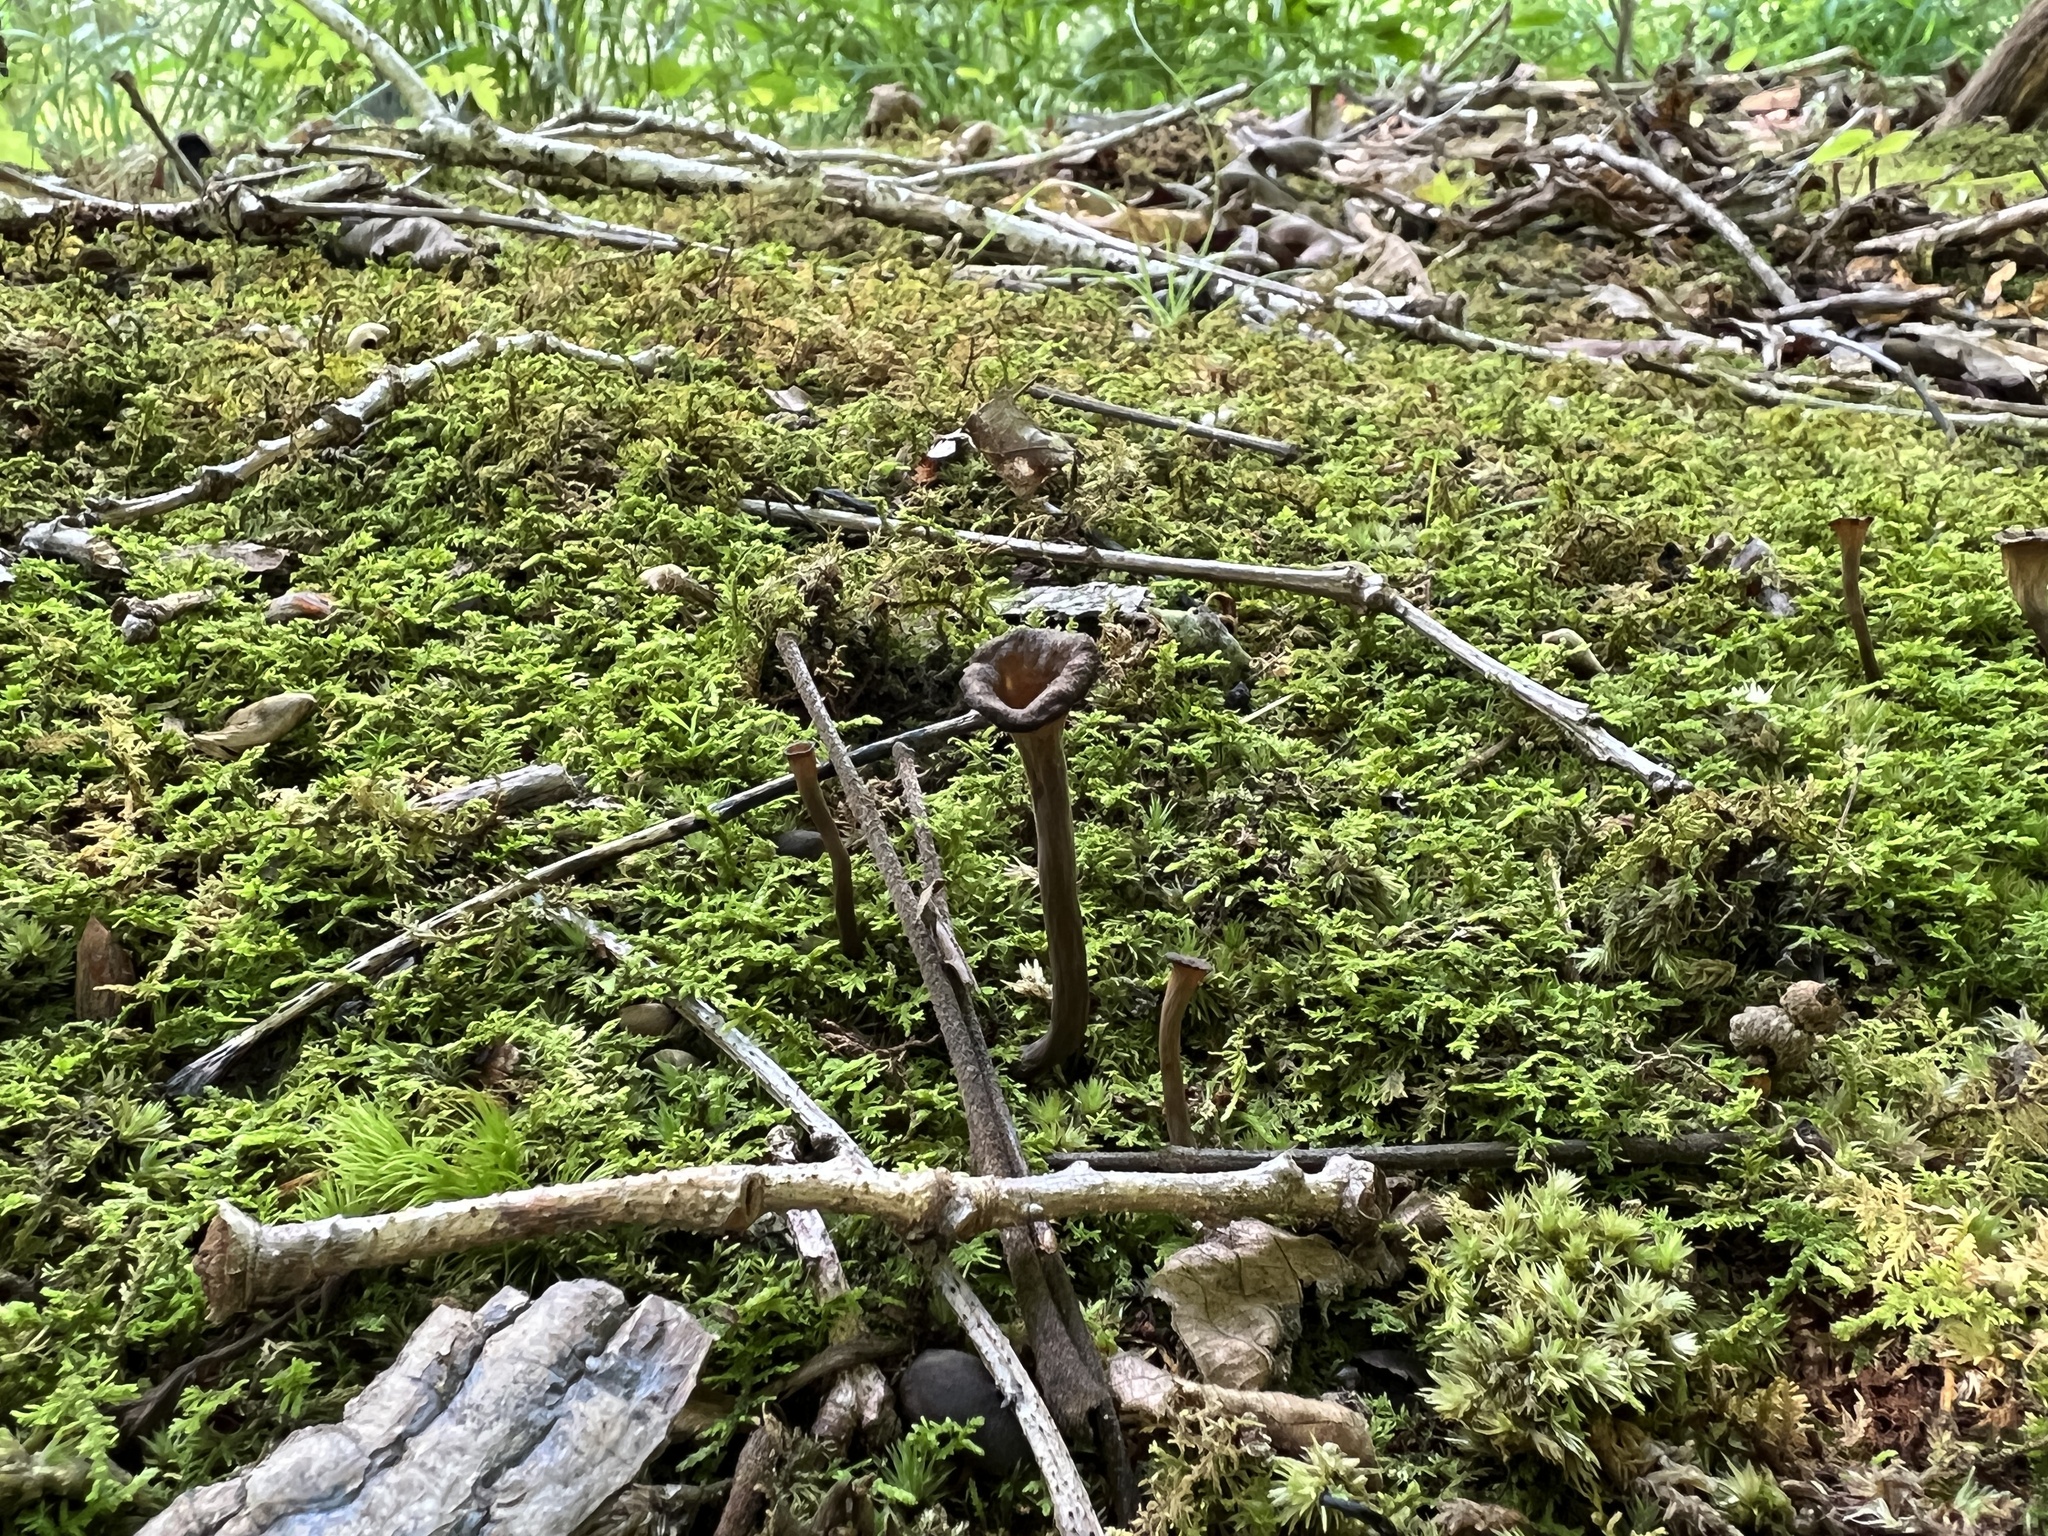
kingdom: Fungi
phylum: Basidiomycota
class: Agaricomycetes
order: Cantharellales
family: Hydnaceae
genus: Craterellus
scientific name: Craterellus cornucopioides
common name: Horn of plenty
